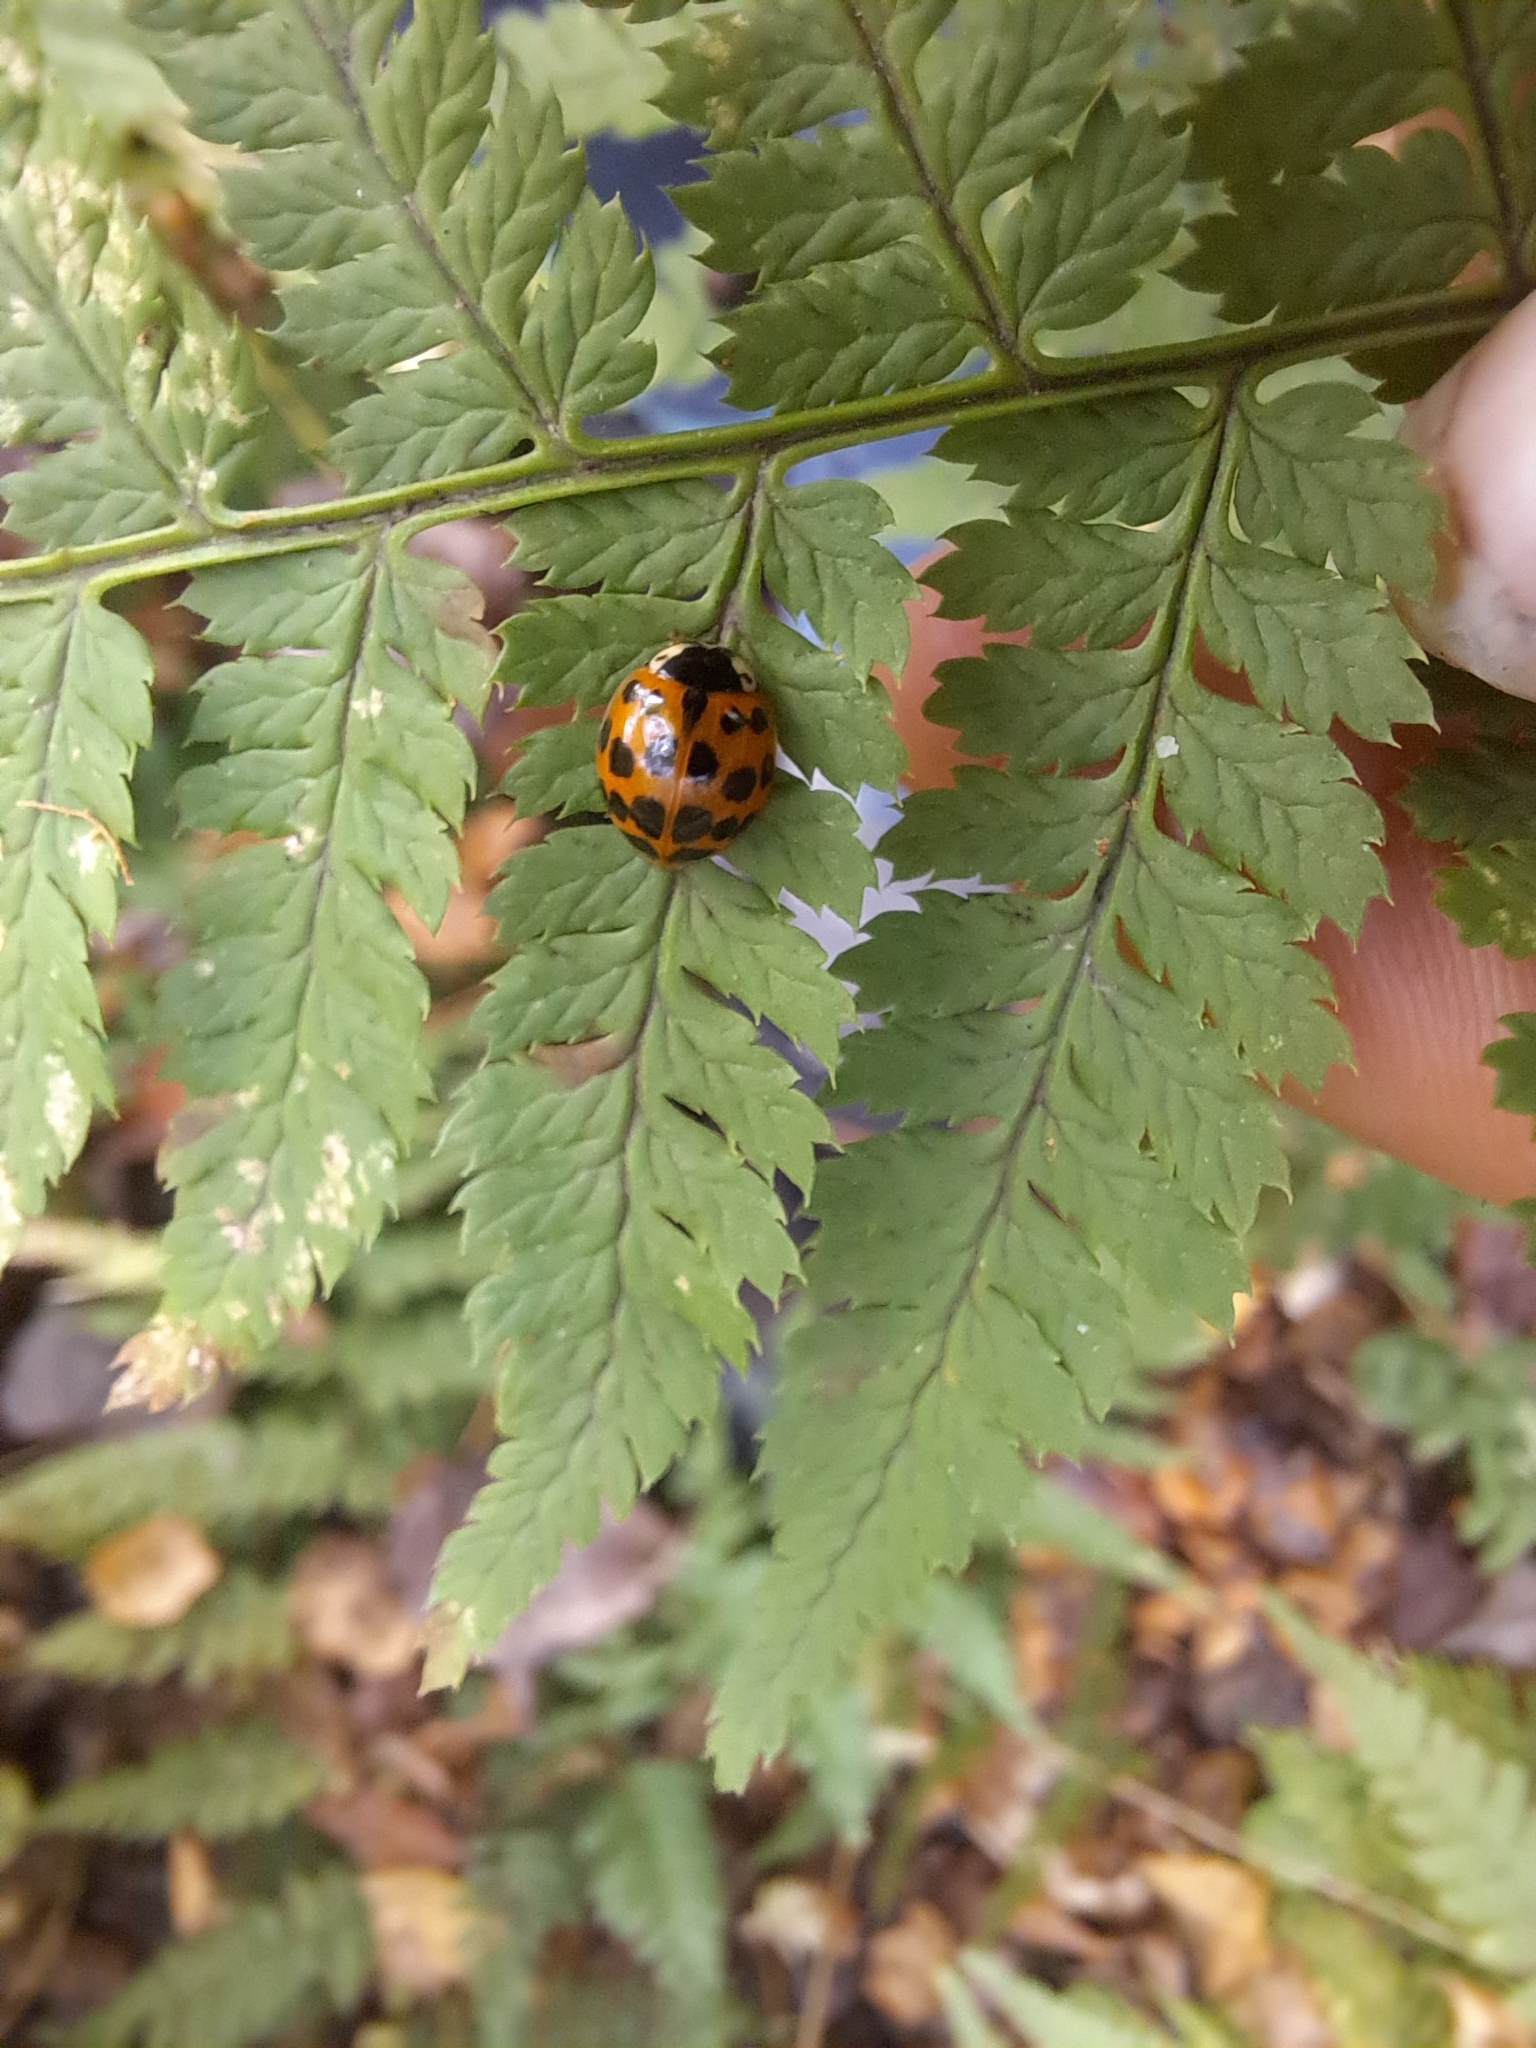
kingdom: Animalia
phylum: Arthropoda
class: Insecta
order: Coleoptera
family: Coccinellidae
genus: Harmonia
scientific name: Harmonia axyridis
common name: Harlequin ladybird
